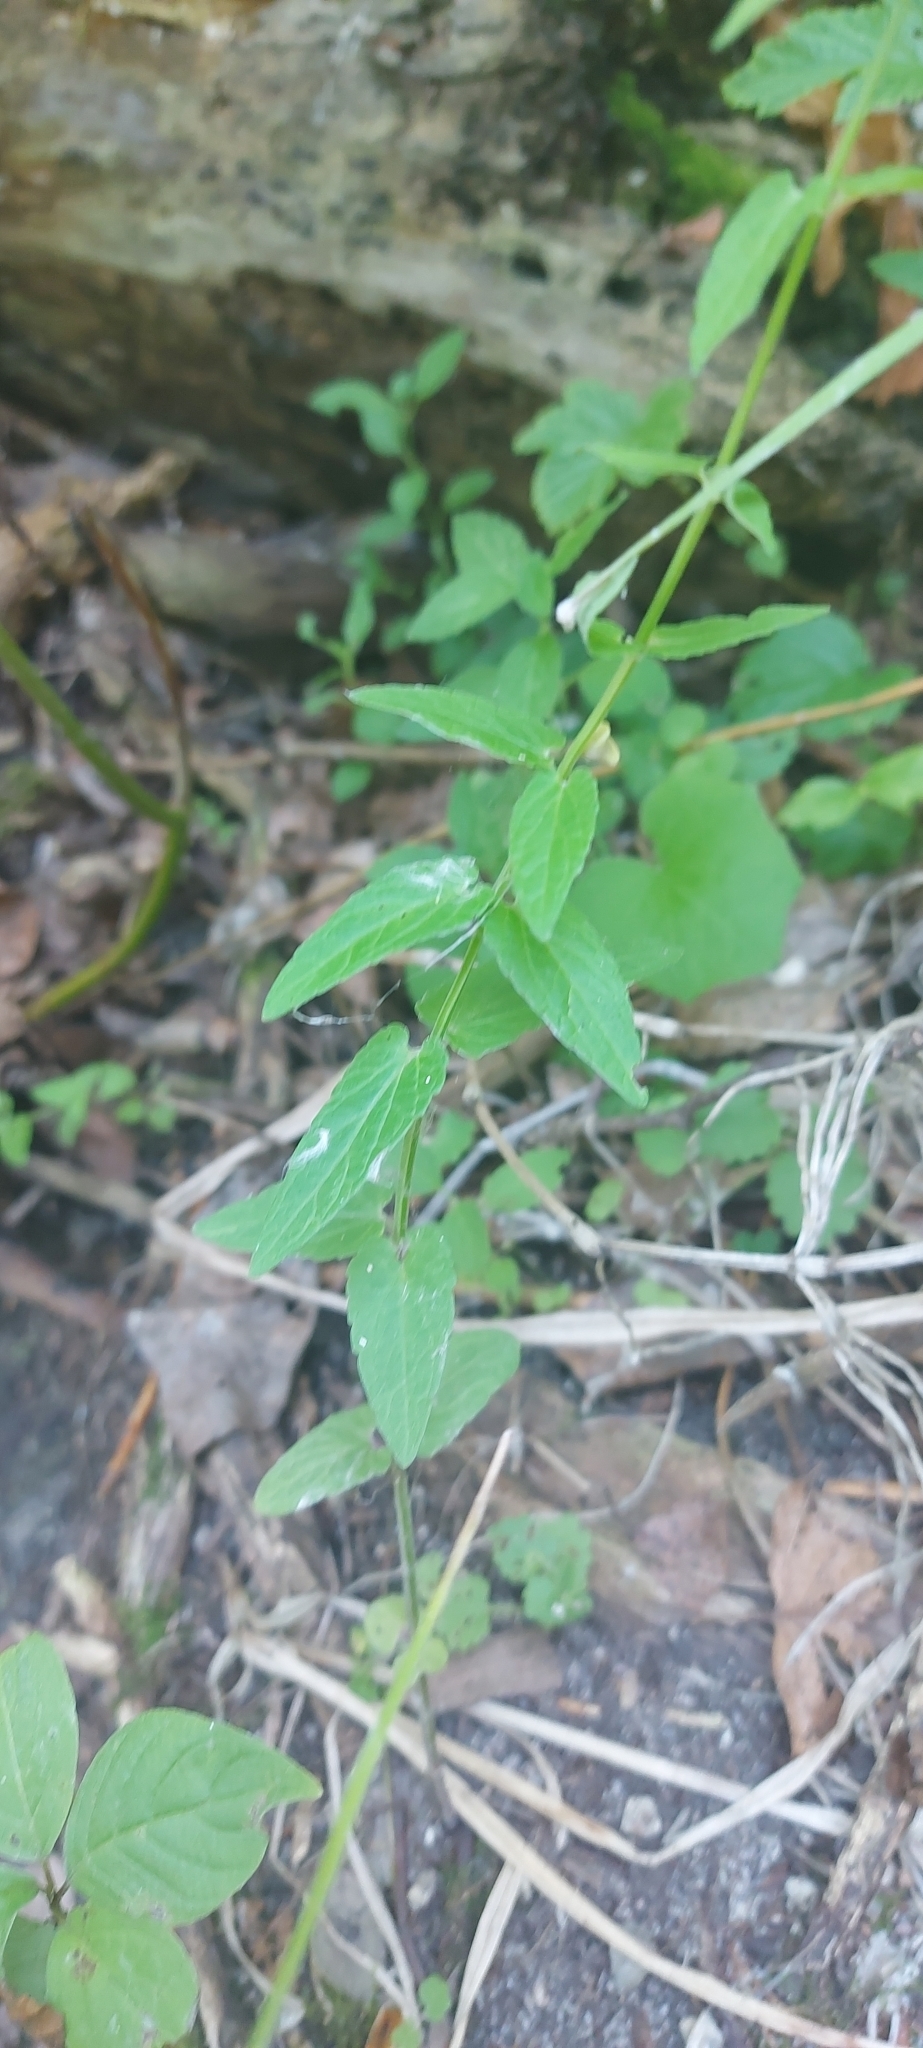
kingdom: Plantae
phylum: Tracheophyta
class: Magnoliopsida
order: Lamiales
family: Lamiaceae
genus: Scutellaria
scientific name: Scutellaria galericulata
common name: Skullcap
